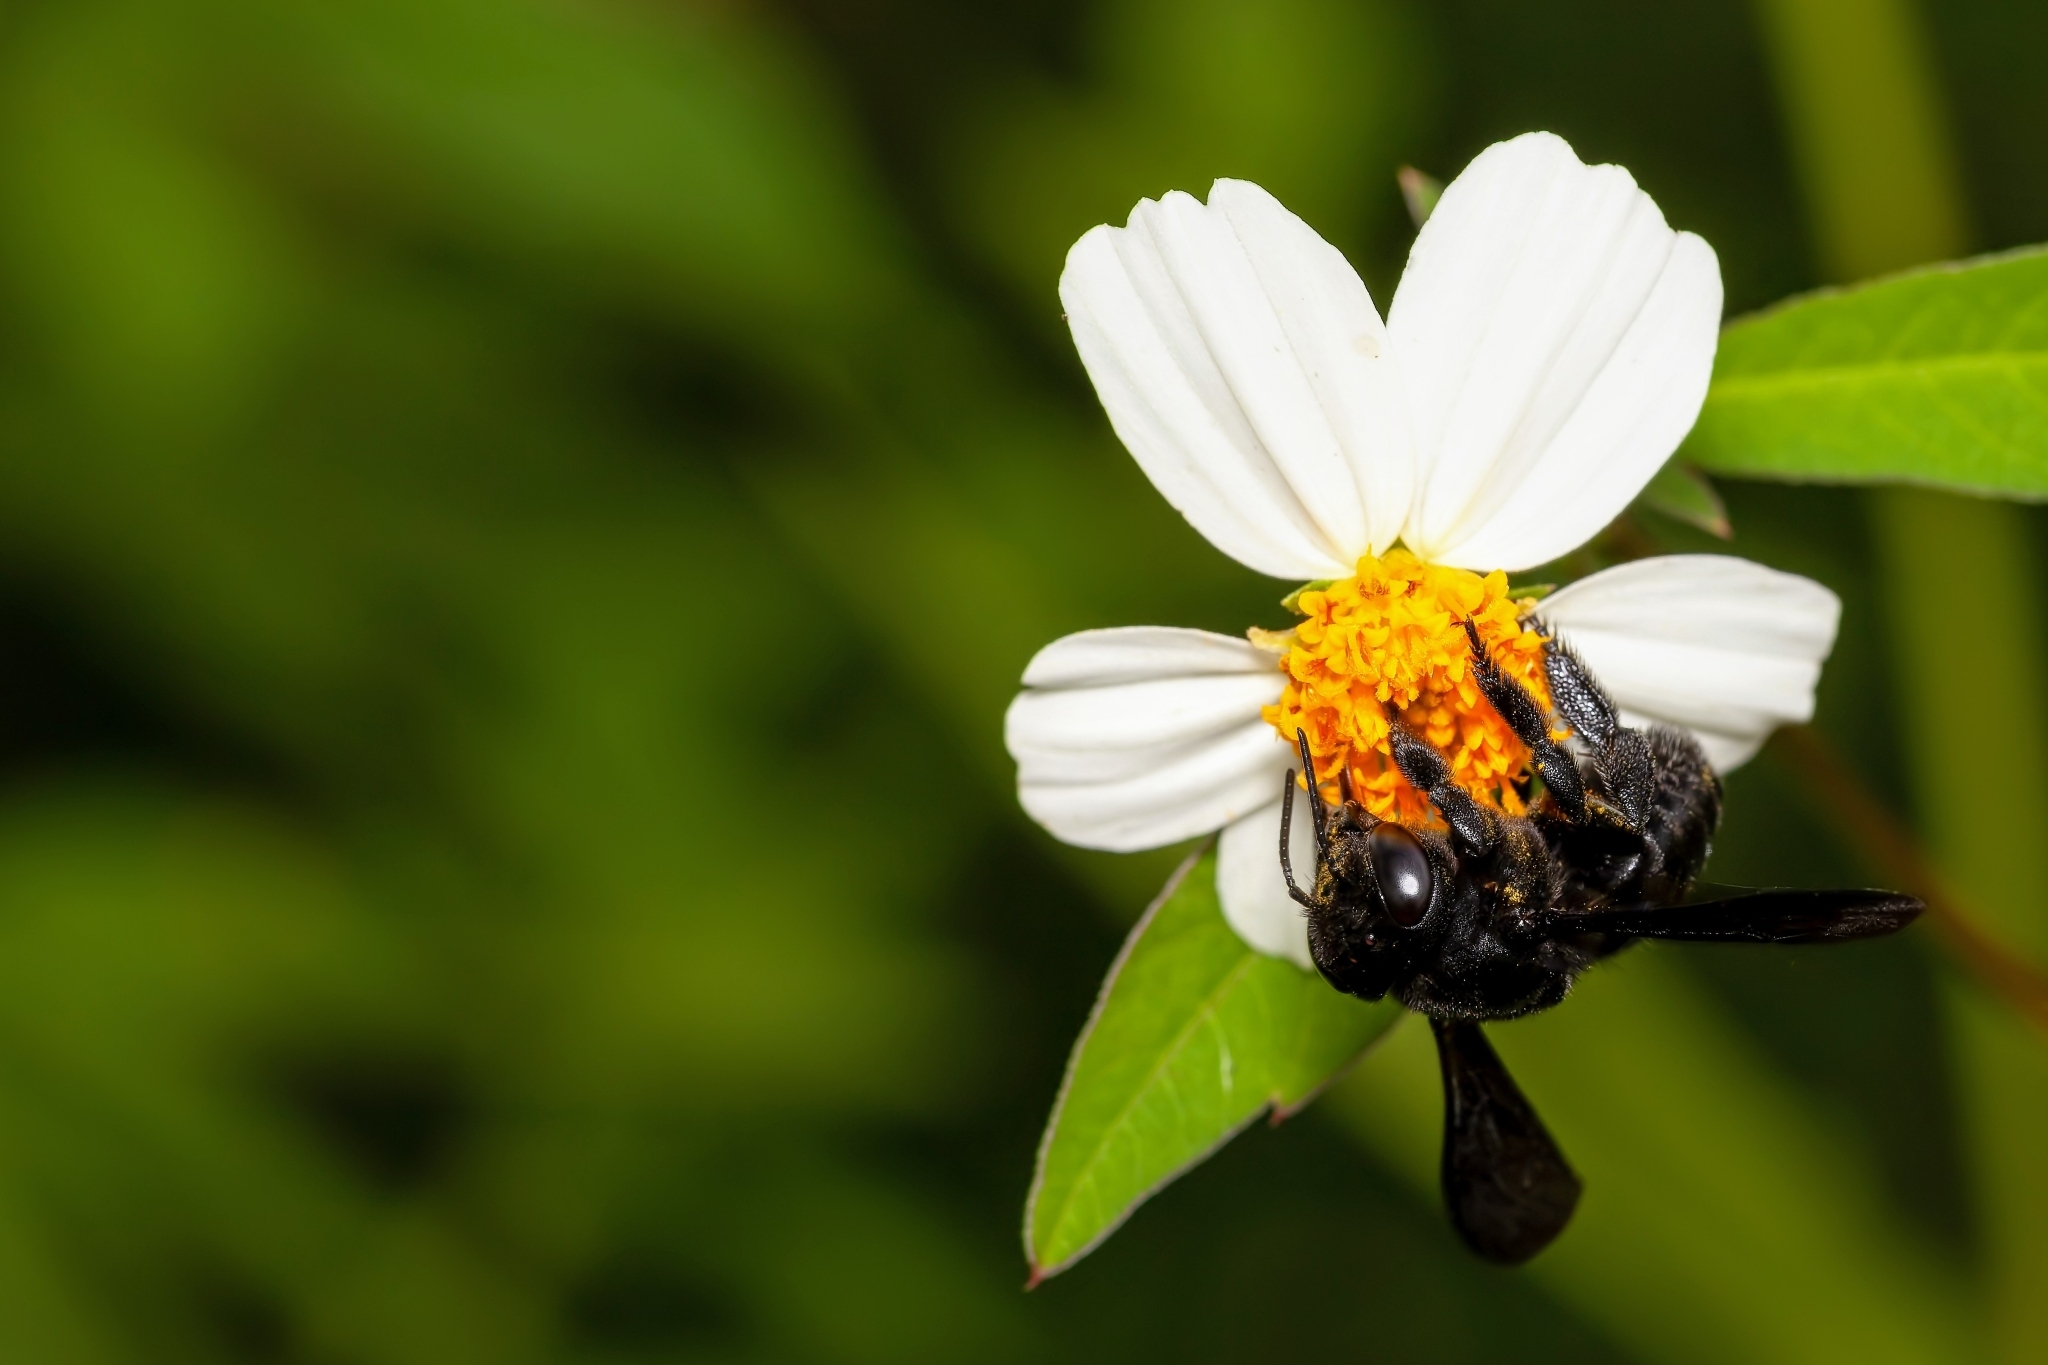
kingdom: Animalia
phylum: Arthropoda
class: Insecta
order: Hymenoptera
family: Megachilidae
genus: Megachile
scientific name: Megachile xylocopoides
